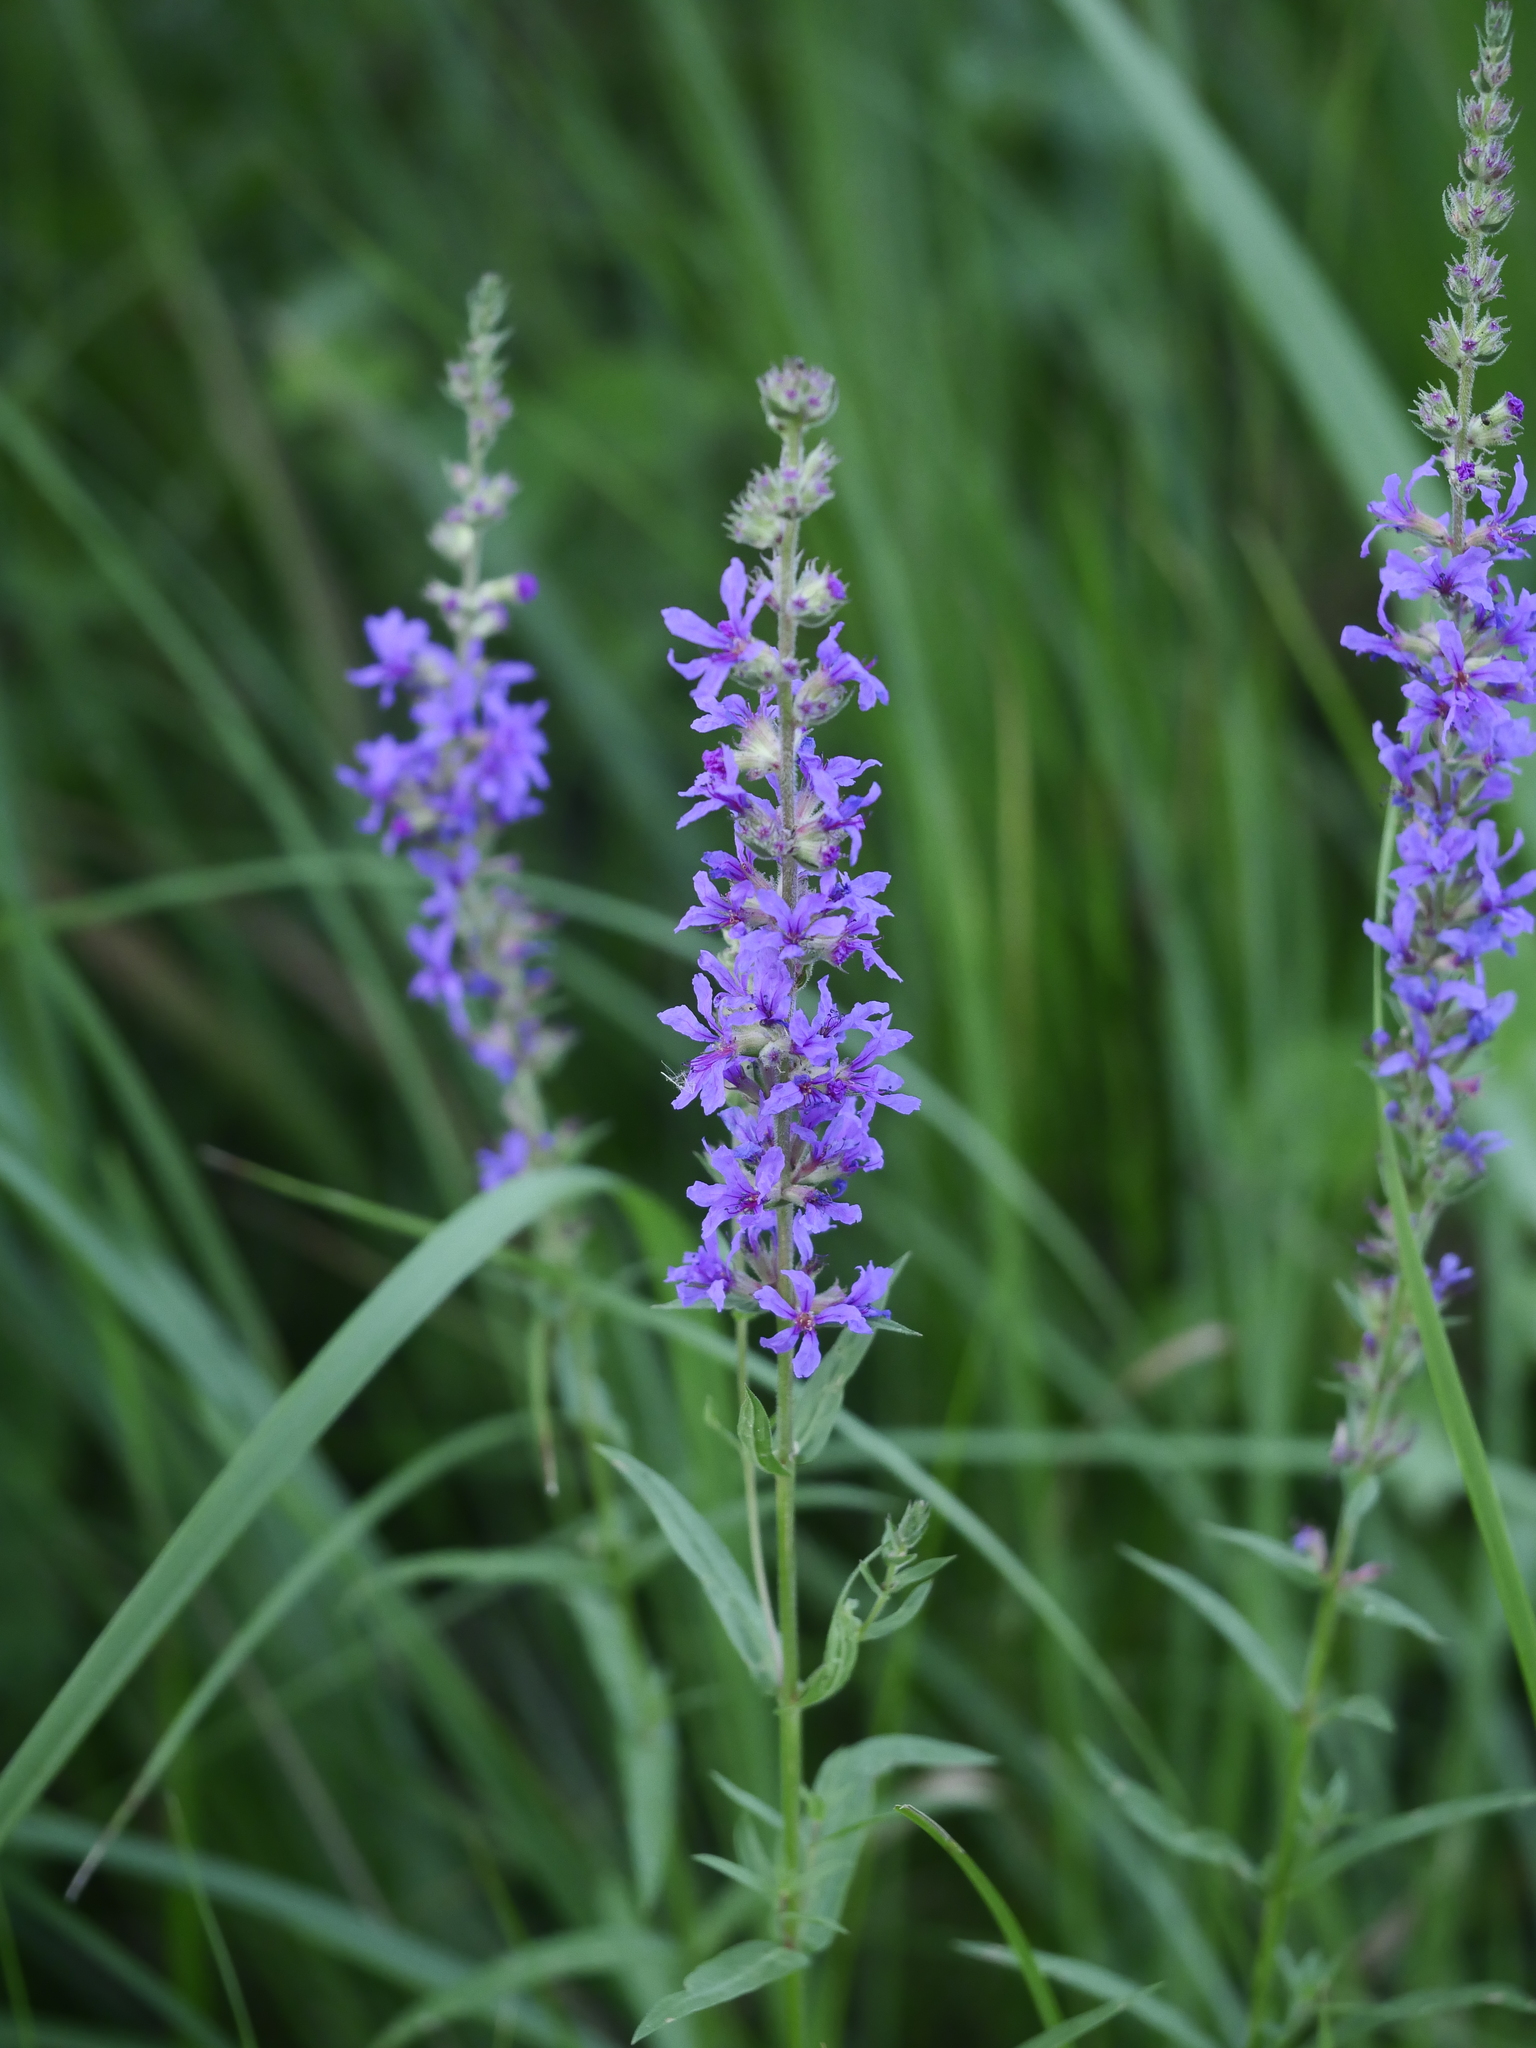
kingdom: Plantae
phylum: Tracheophyta
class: Magnoliopsida
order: Myrtales
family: Lythraceae
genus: Lythrum
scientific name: Lythrum salicaria
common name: Purple loosestrife
